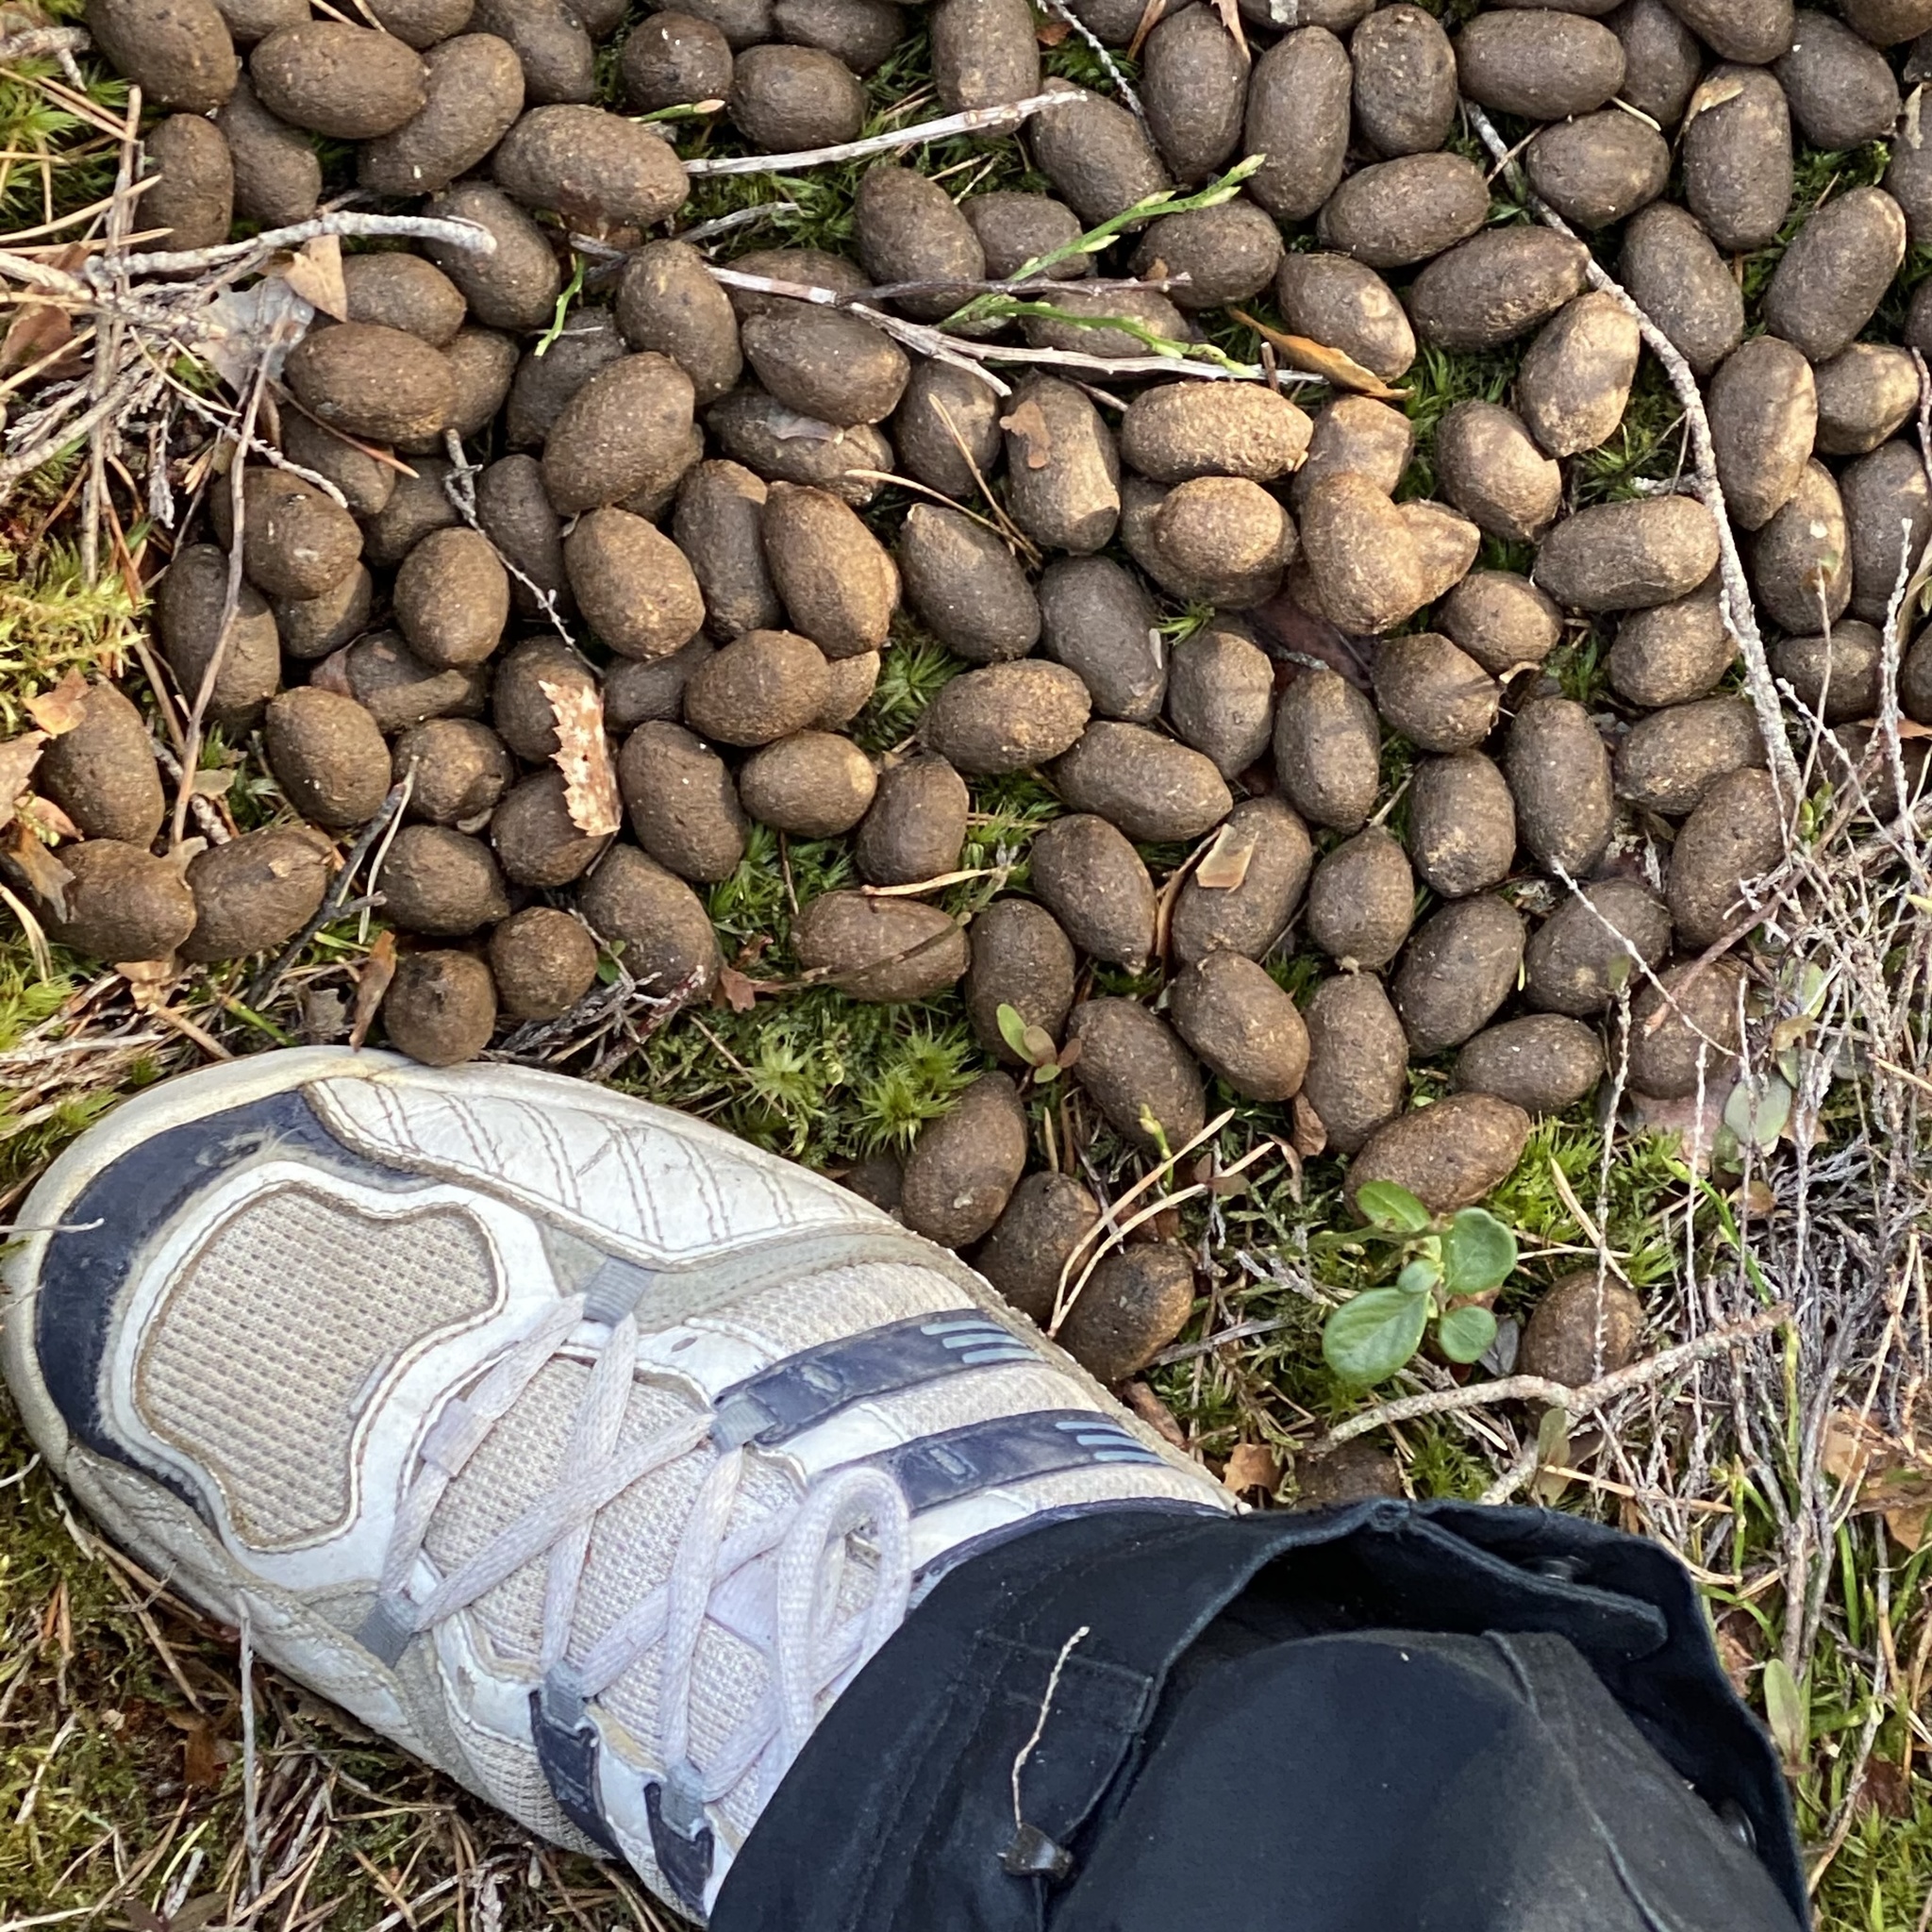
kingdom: Animalia
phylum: Chordata
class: Mammalia
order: Artiodactyla
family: Cervidae
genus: Alces
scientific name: Alces alces
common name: Moose
